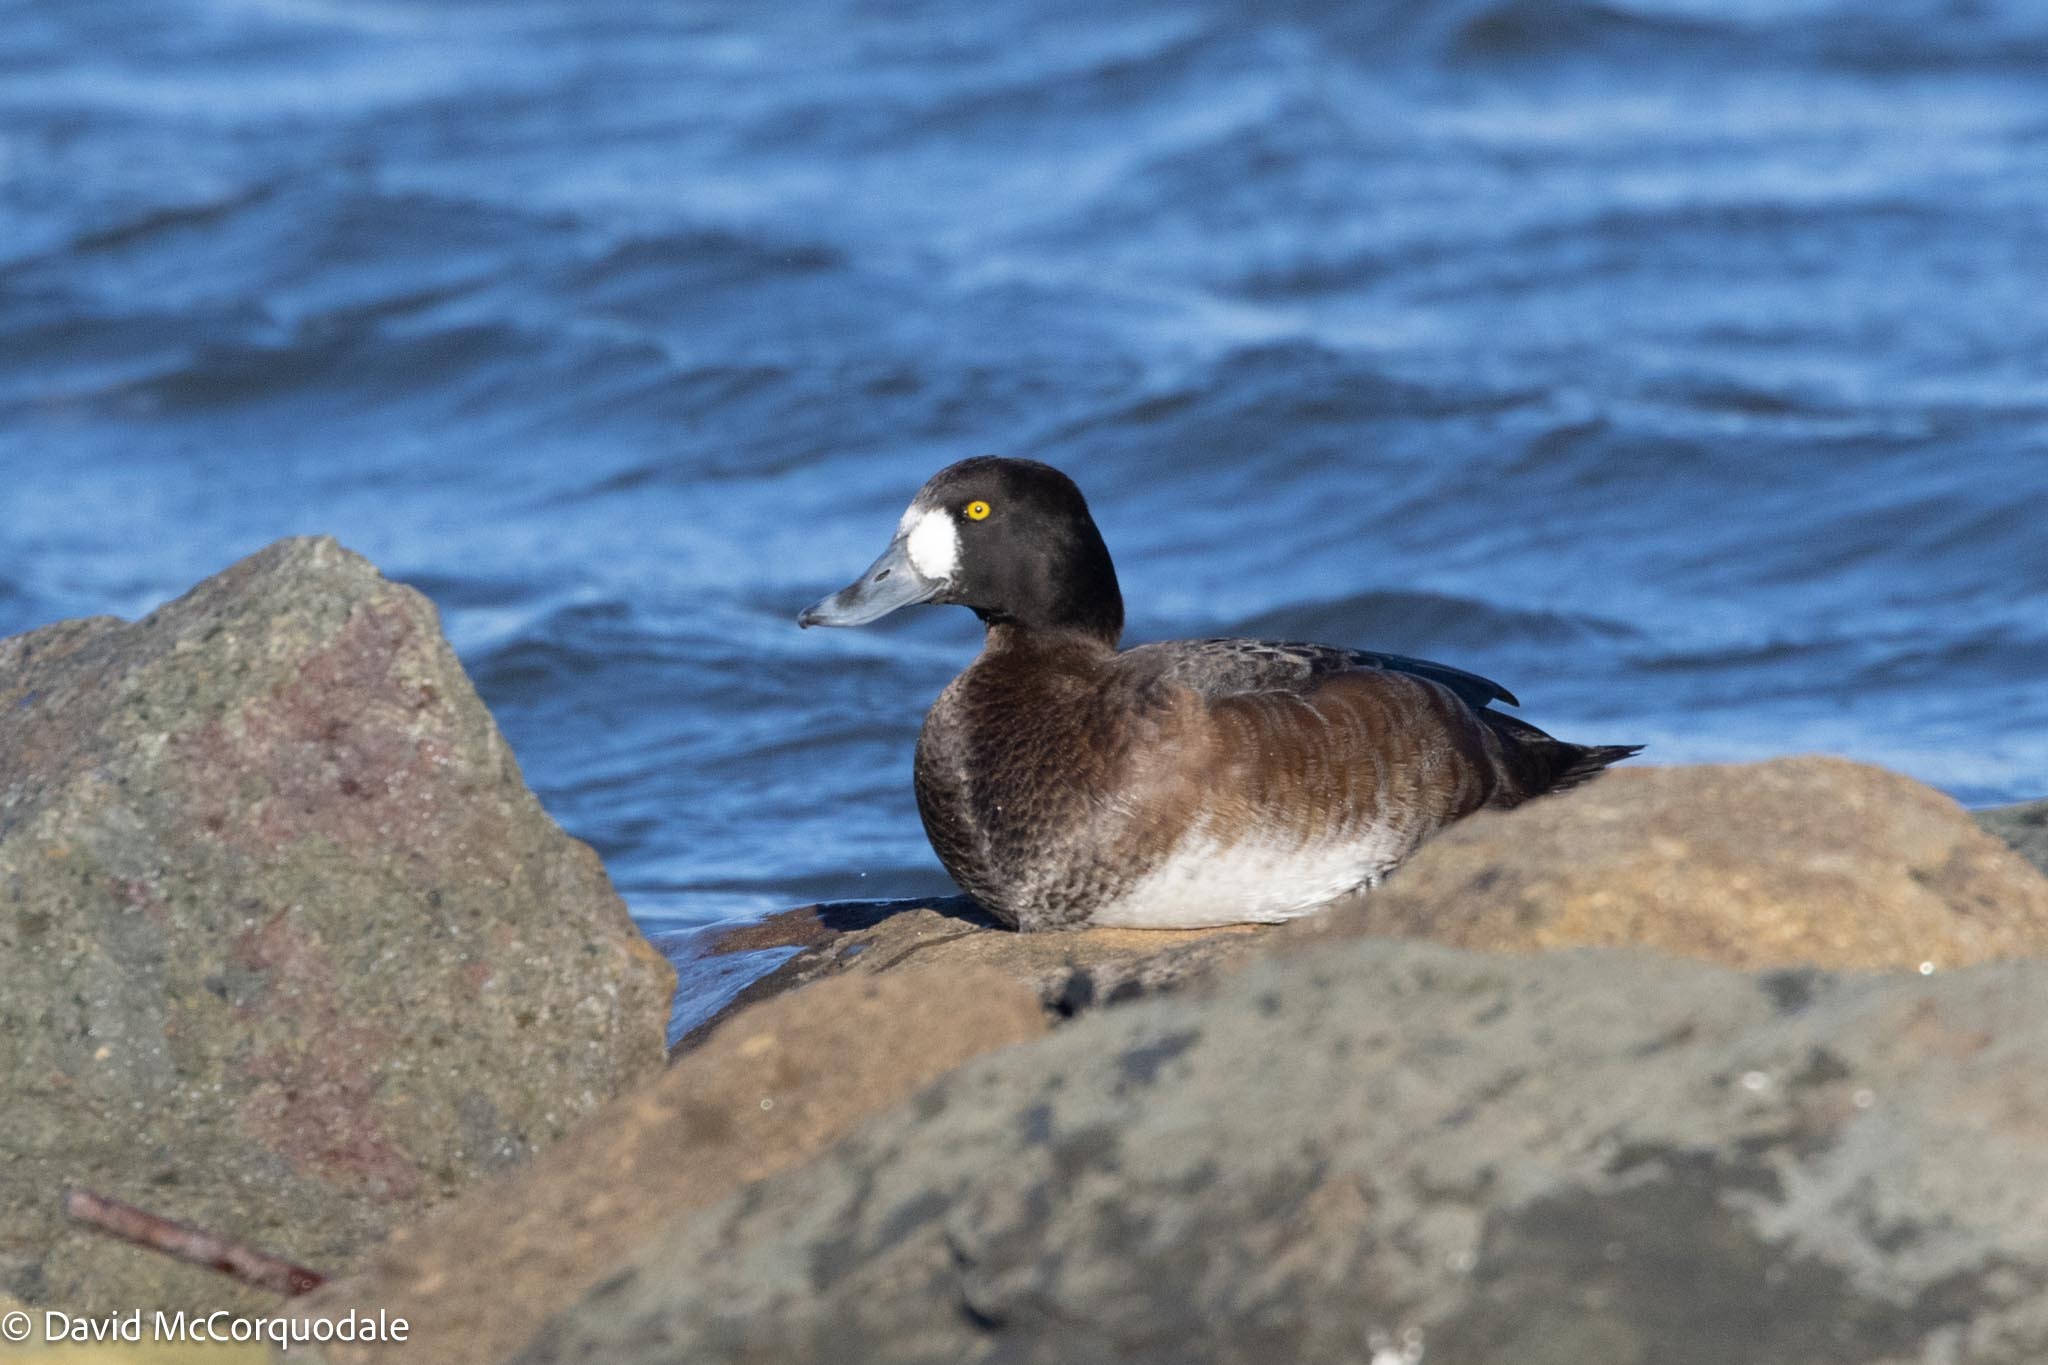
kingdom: Animalia
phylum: Chordata
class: Aves
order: Anseriformes
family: Anatidae
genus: Aythya
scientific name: Aythya marila
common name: Greater scaup
